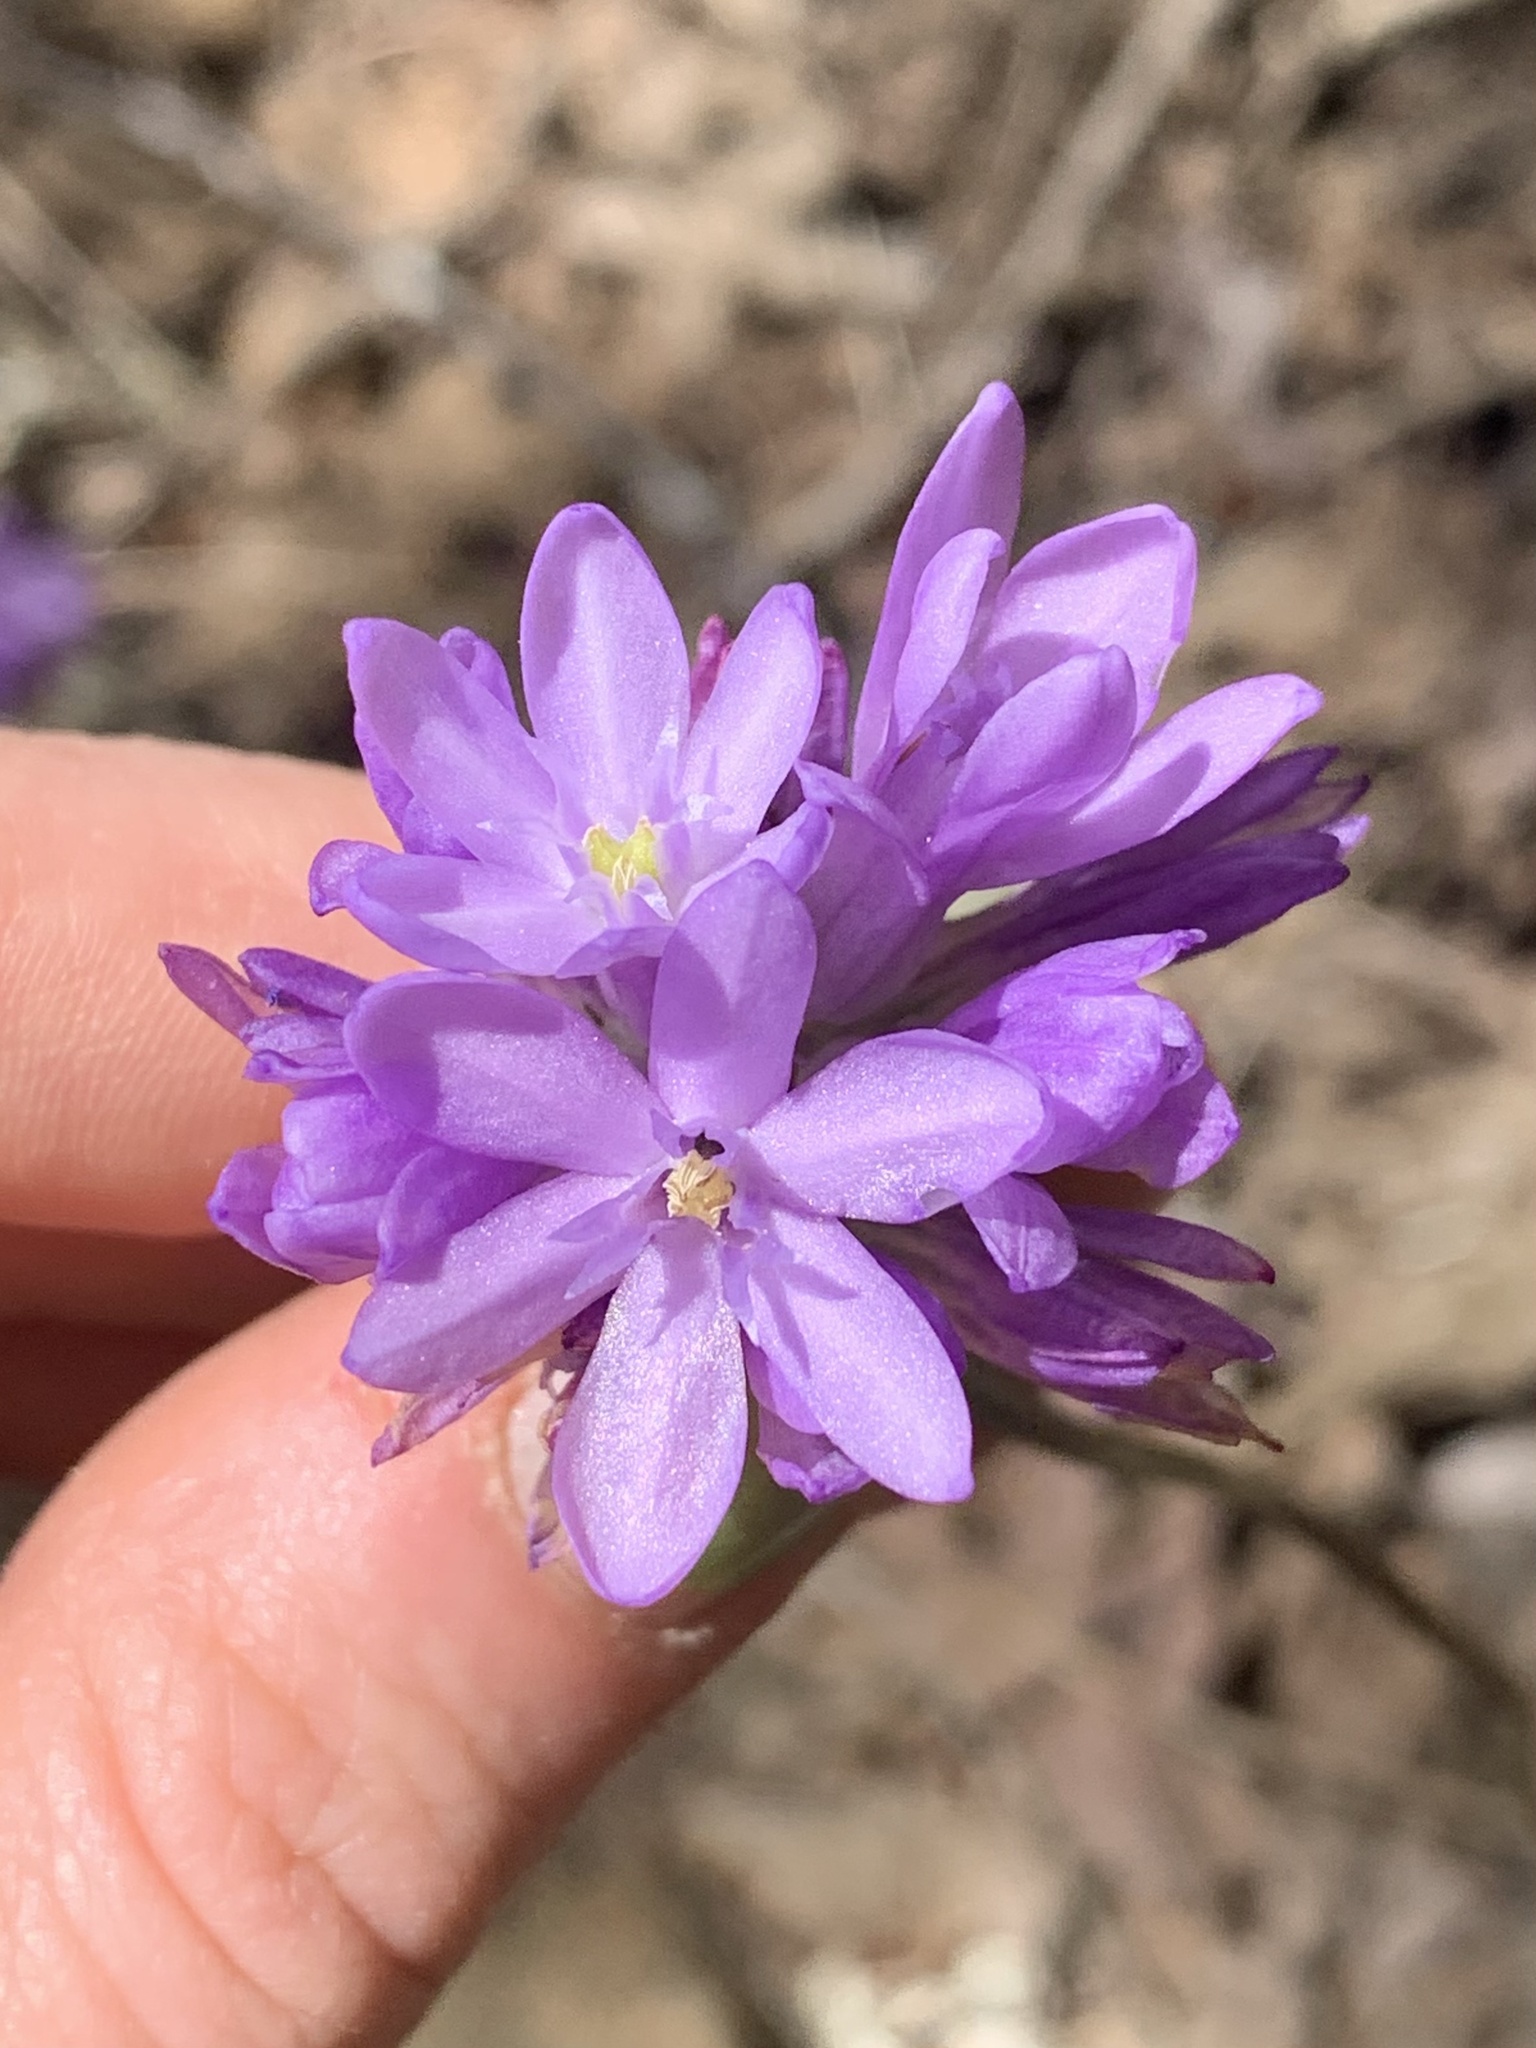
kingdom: Plantae
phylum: Tracheophyta
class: Liliopsida
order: Asparagales
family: Asparagaceae
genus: Dichelostemma
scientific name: Dichelostemma congestum
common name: Fork-tooth ookow
